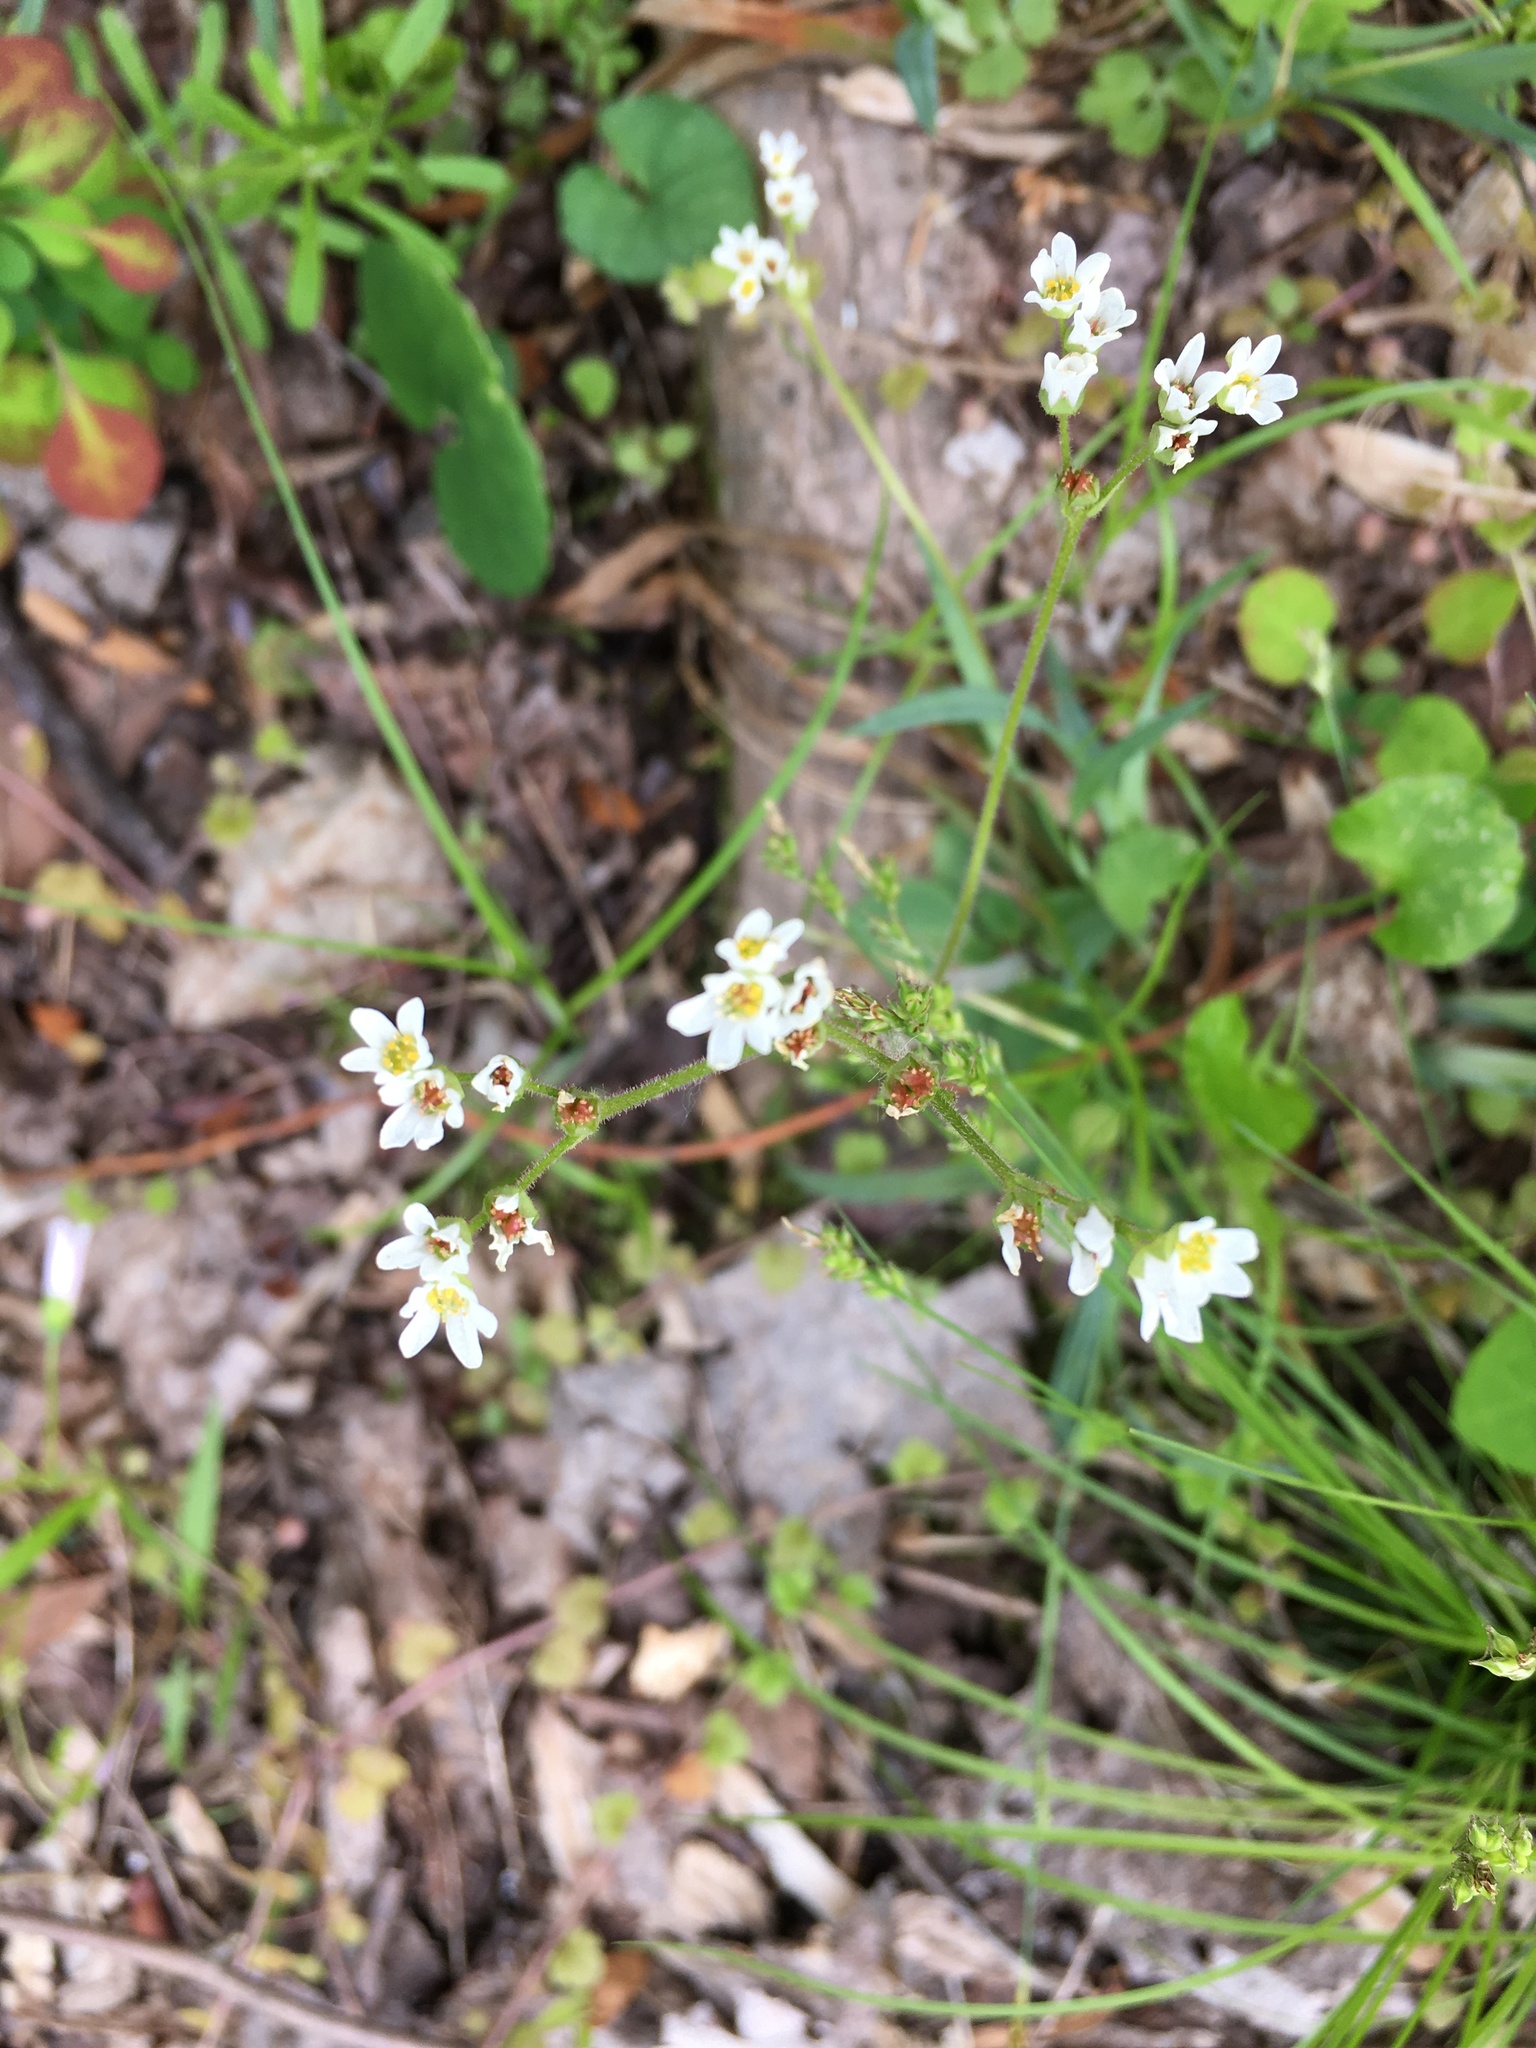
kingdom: Plantae
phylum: Tracheophyta
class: Magnoliopsida
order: Saxifragales
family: Saxifragaceae
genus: Micranthes
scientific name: Micranthes virginiensis
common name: Early saxifrage
